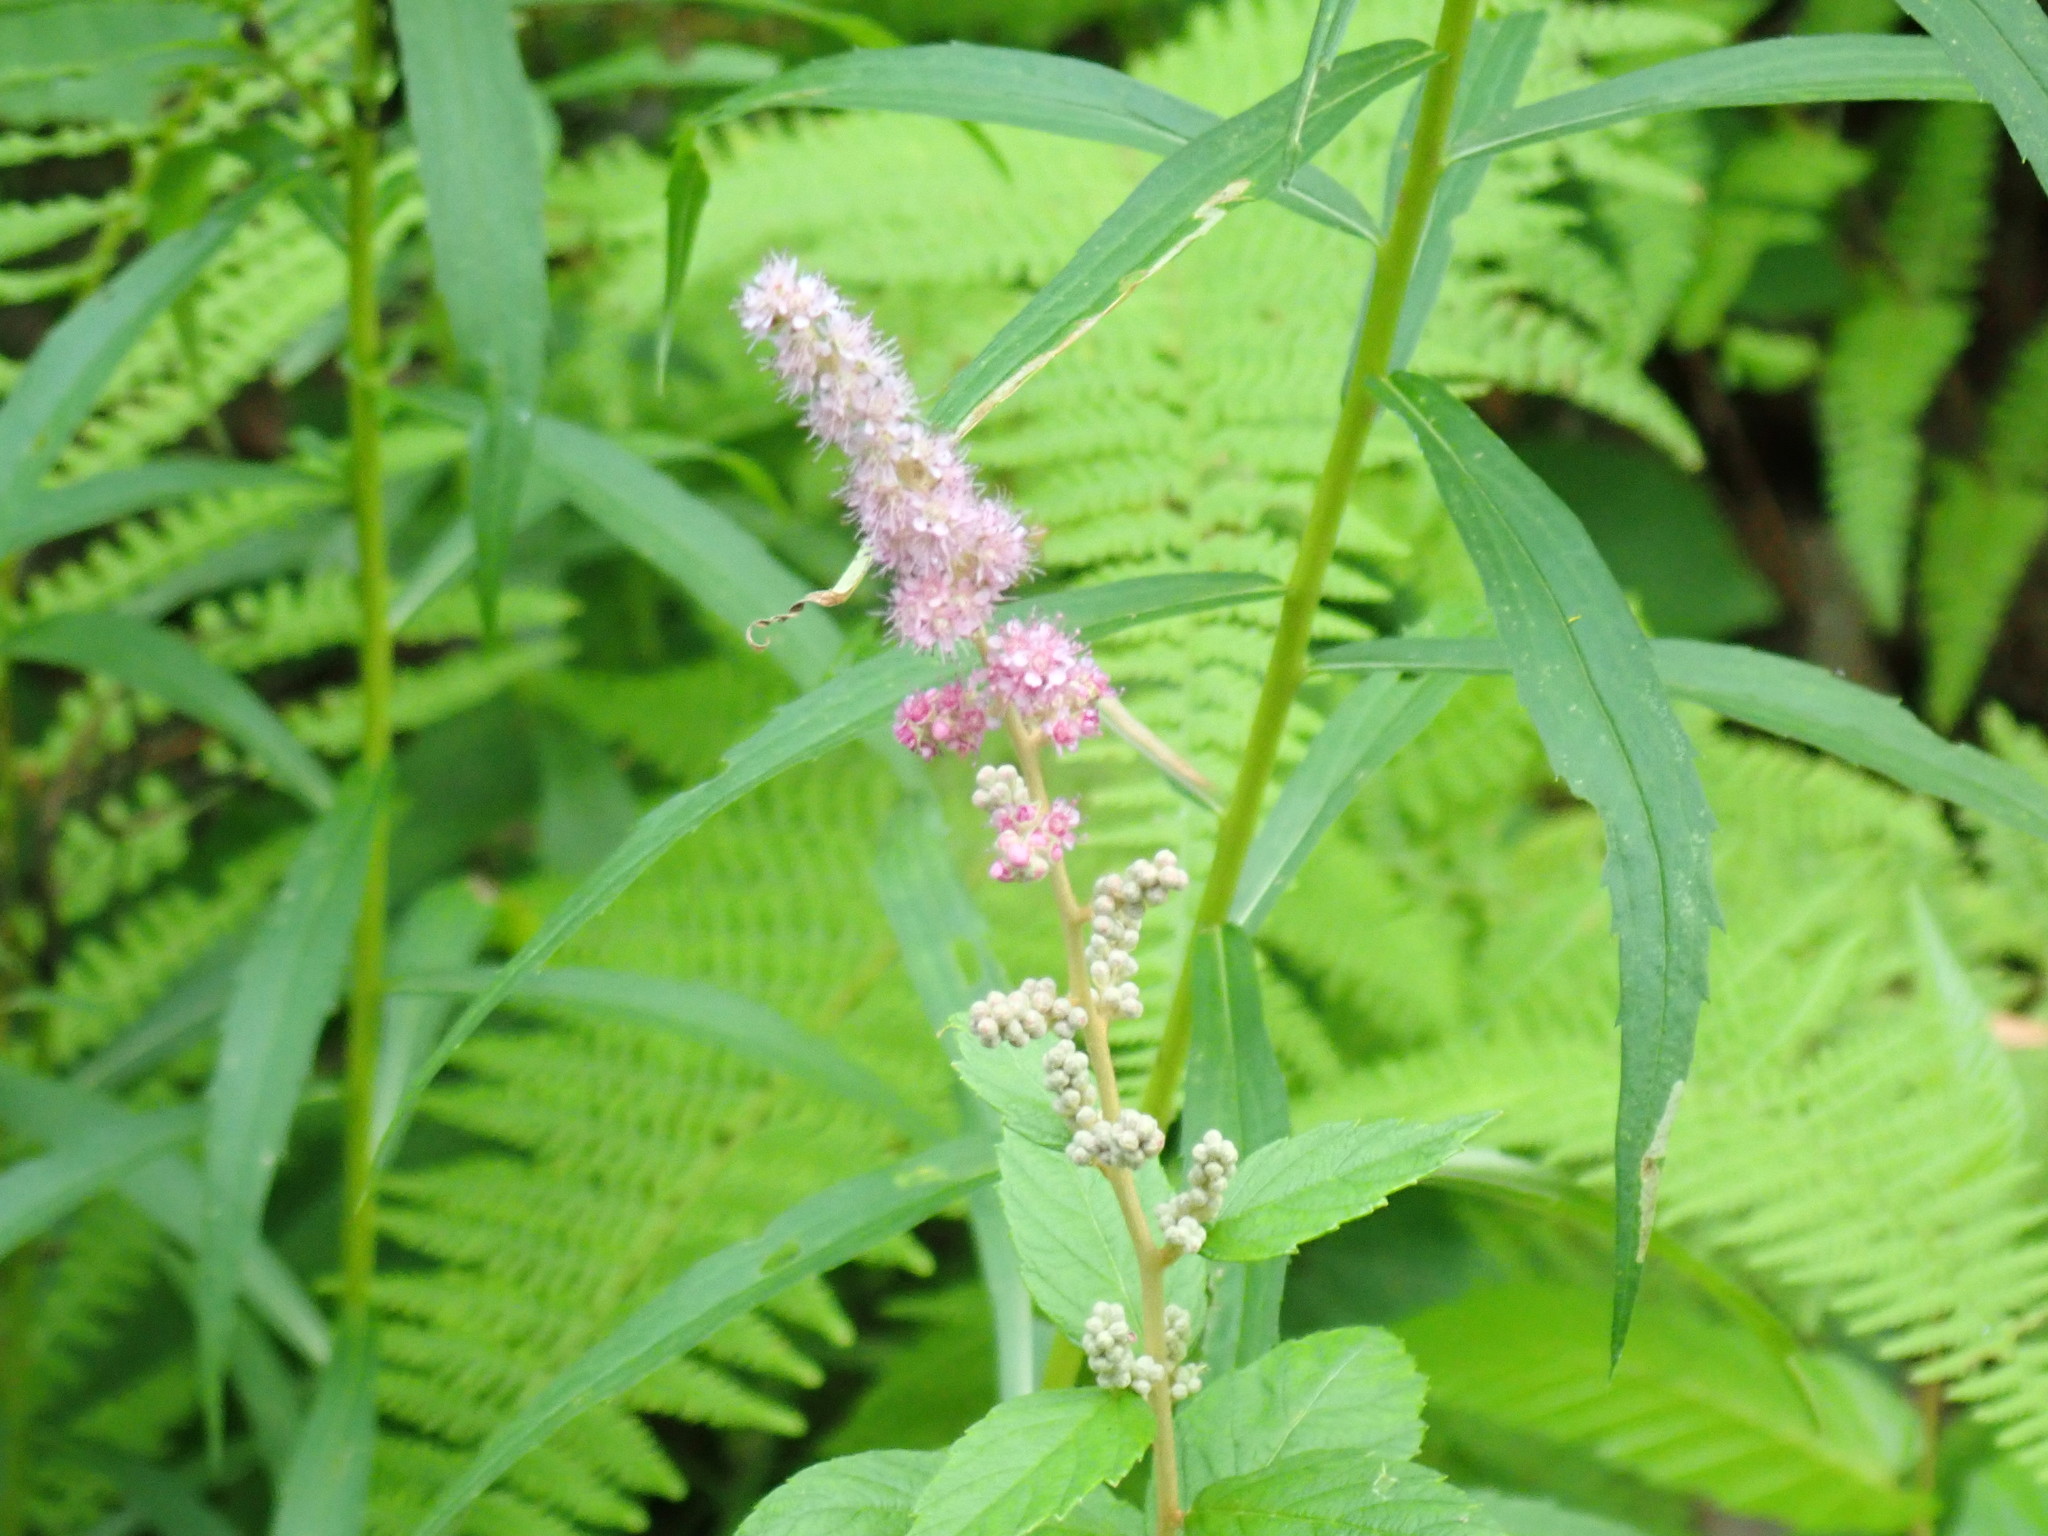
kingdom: Plantae
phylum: Tracheophyta
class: Magnoliopsida
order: Rosales
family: Rosaceae
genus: Spiraea
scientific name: Spiraea tomentosa
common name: Hardhack
